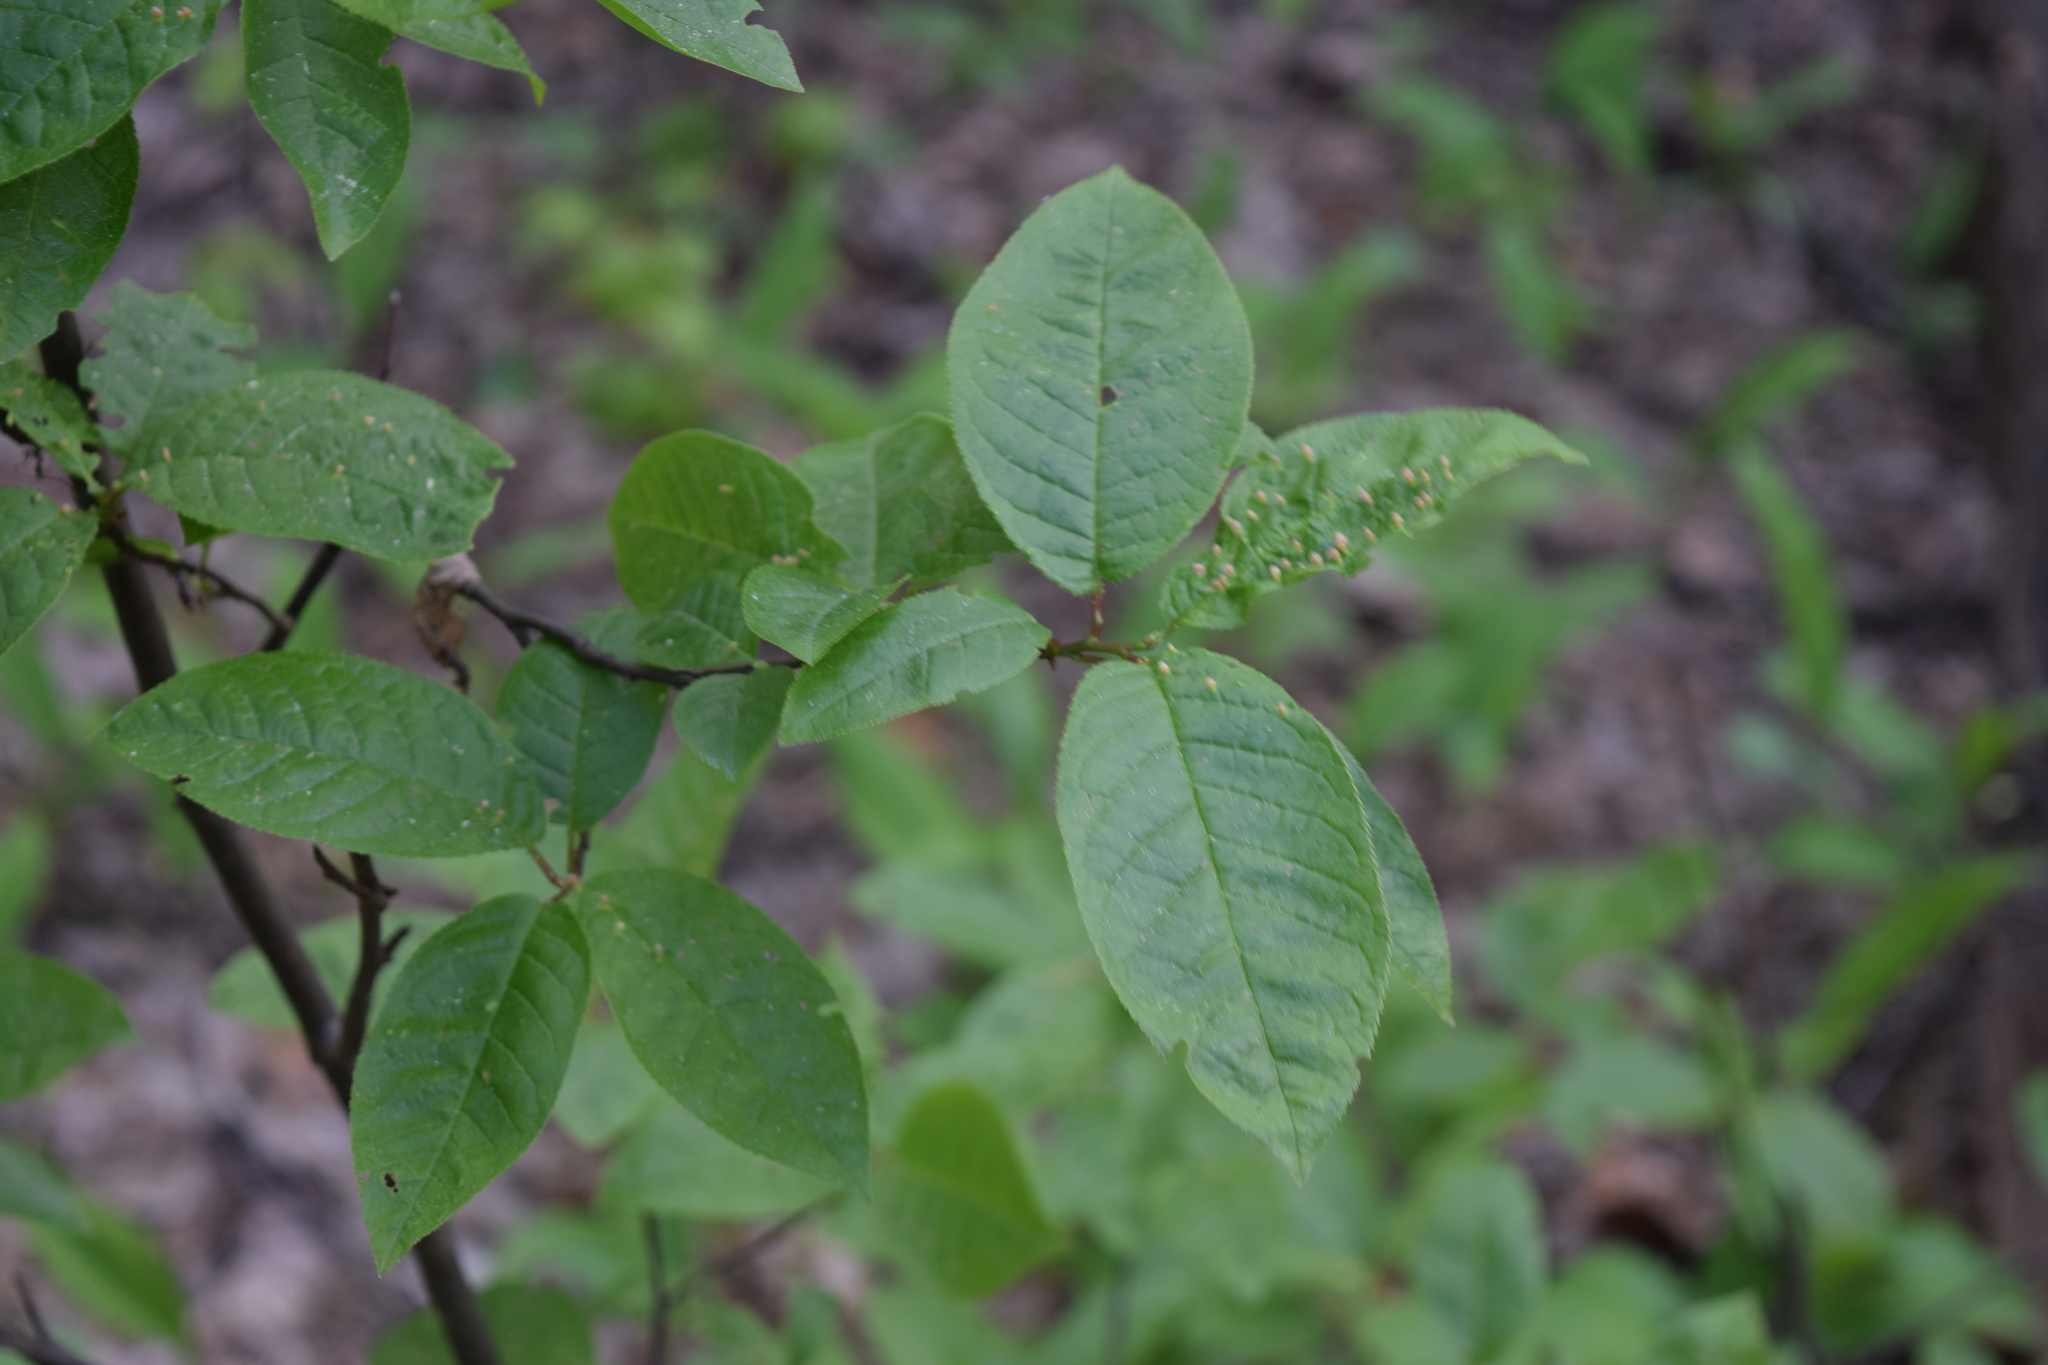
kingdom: Plantae
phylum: Tracheophyta
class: Magnoliopsida
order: Rosales
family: Rosaceae
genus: Prunus
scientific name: Prunus padus
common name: Bird cherry
